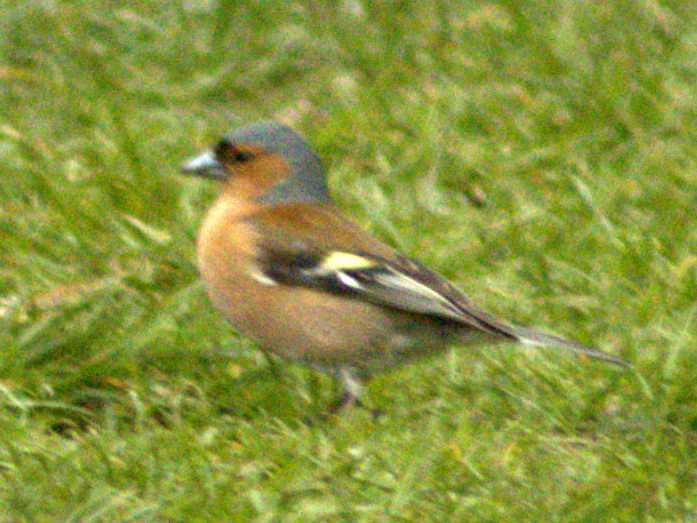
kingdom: Animalia
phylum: Chordata
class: Aves
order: Passeriformes
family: Fringillidae
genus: Fringilla
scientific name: Fringilla coelebs
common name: Common chaffinch
